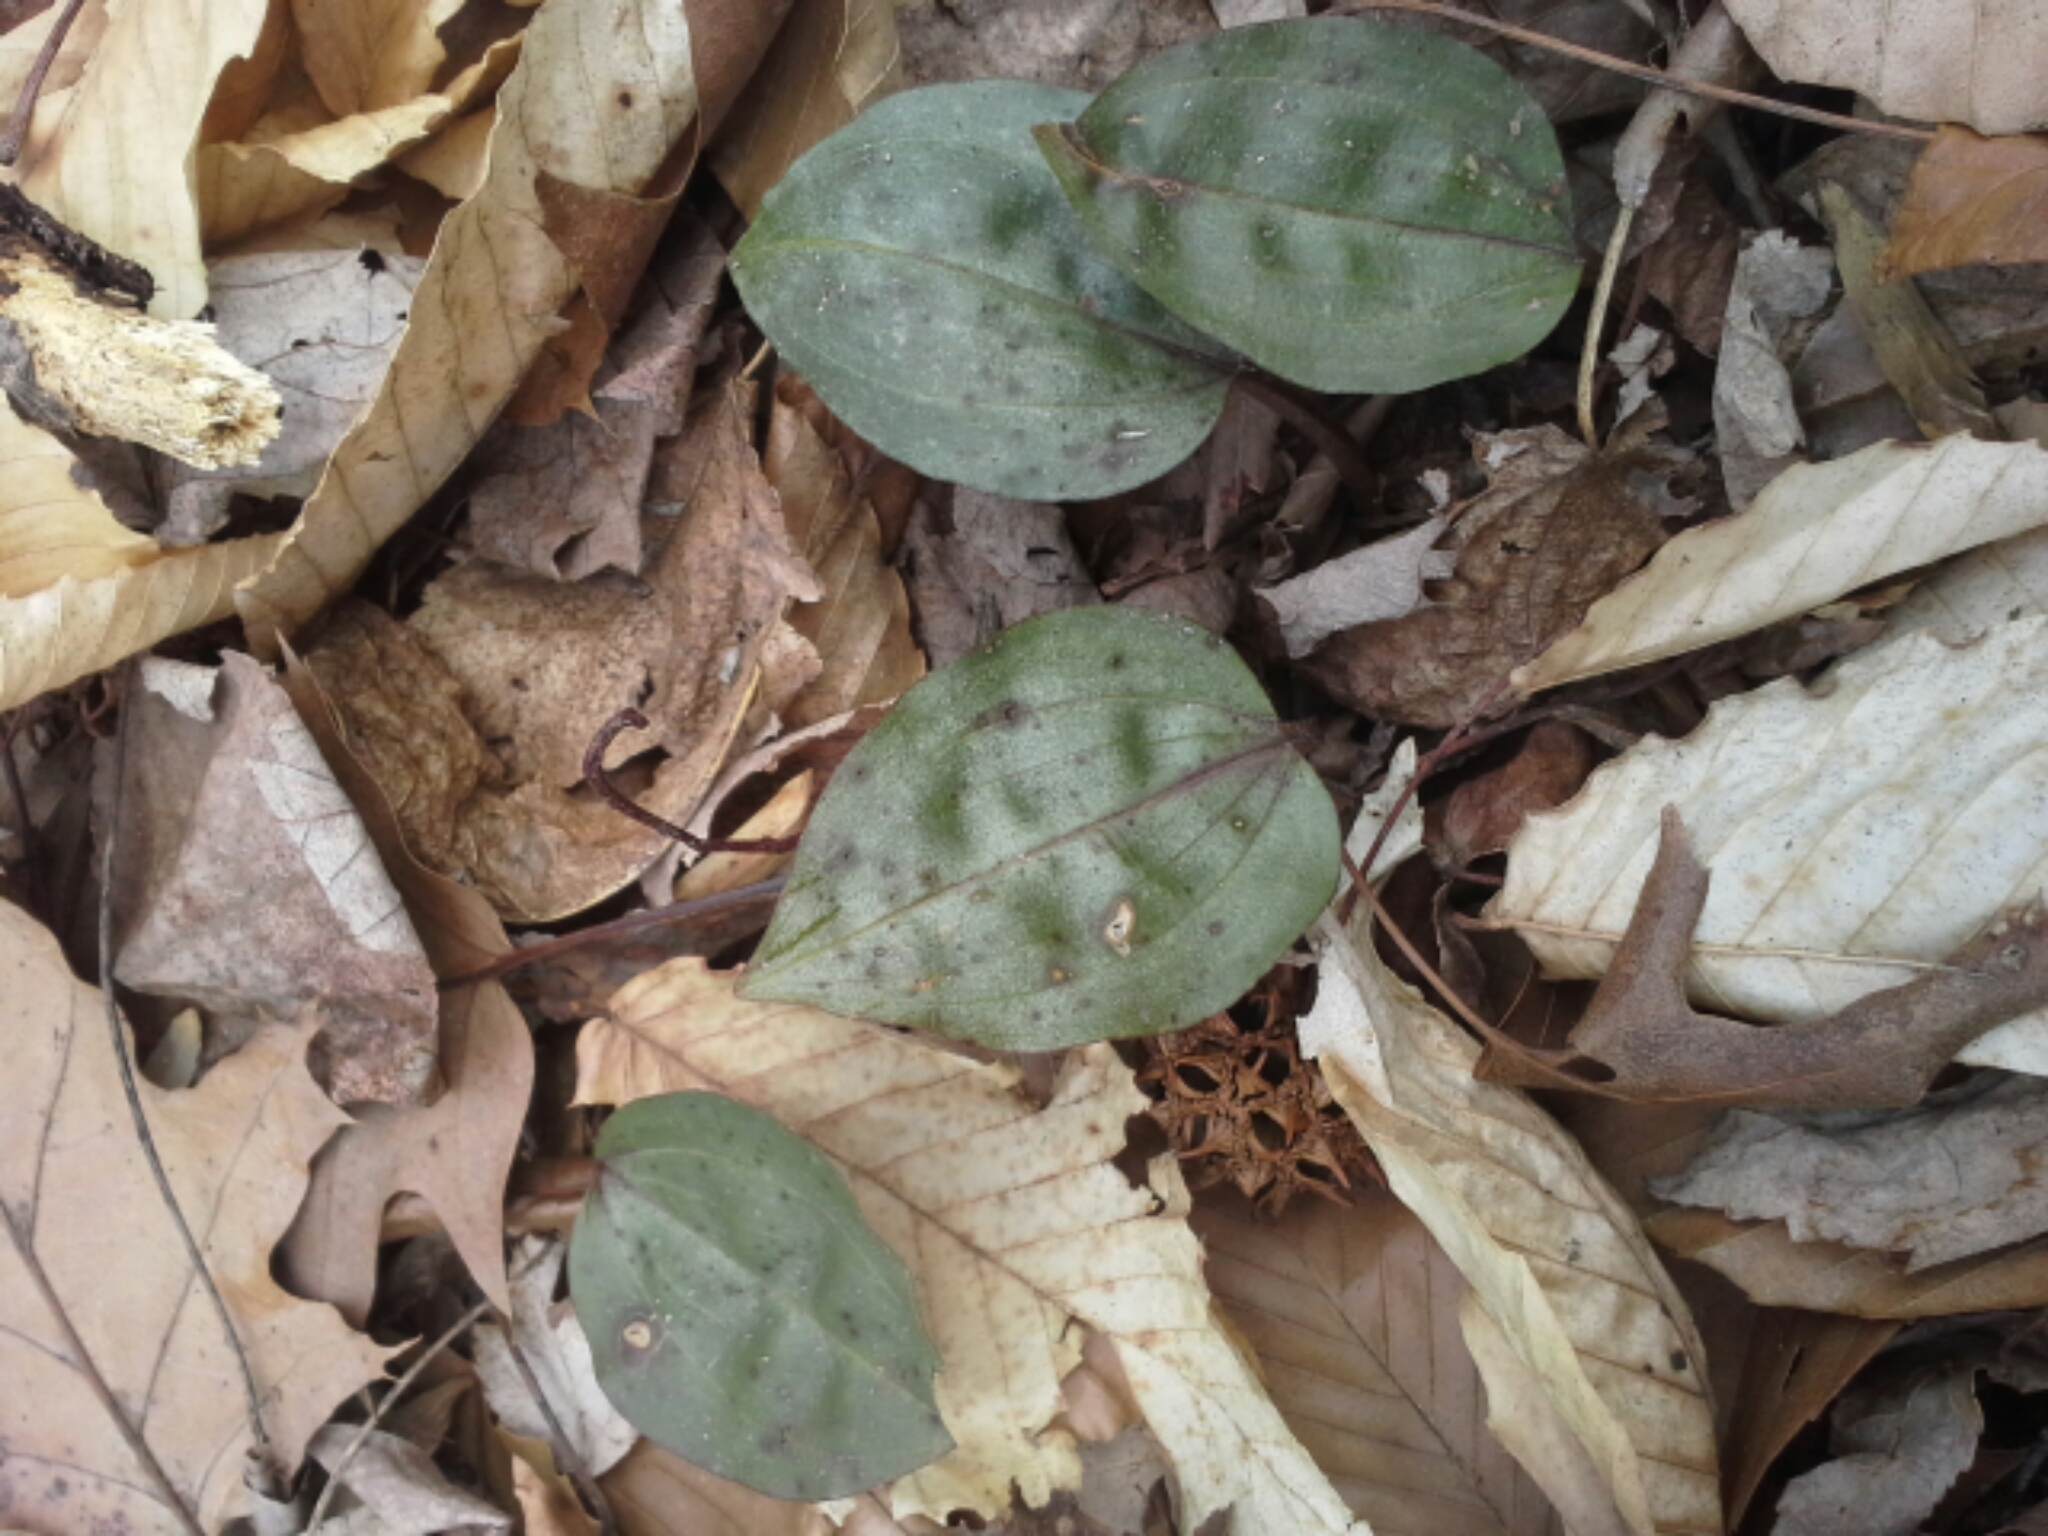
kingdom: Plantae
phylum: Tracheophyta
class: Liliopsida
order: Asparagales
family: Orchidaceae
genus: Tipularia
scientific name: Tipularia discolor
